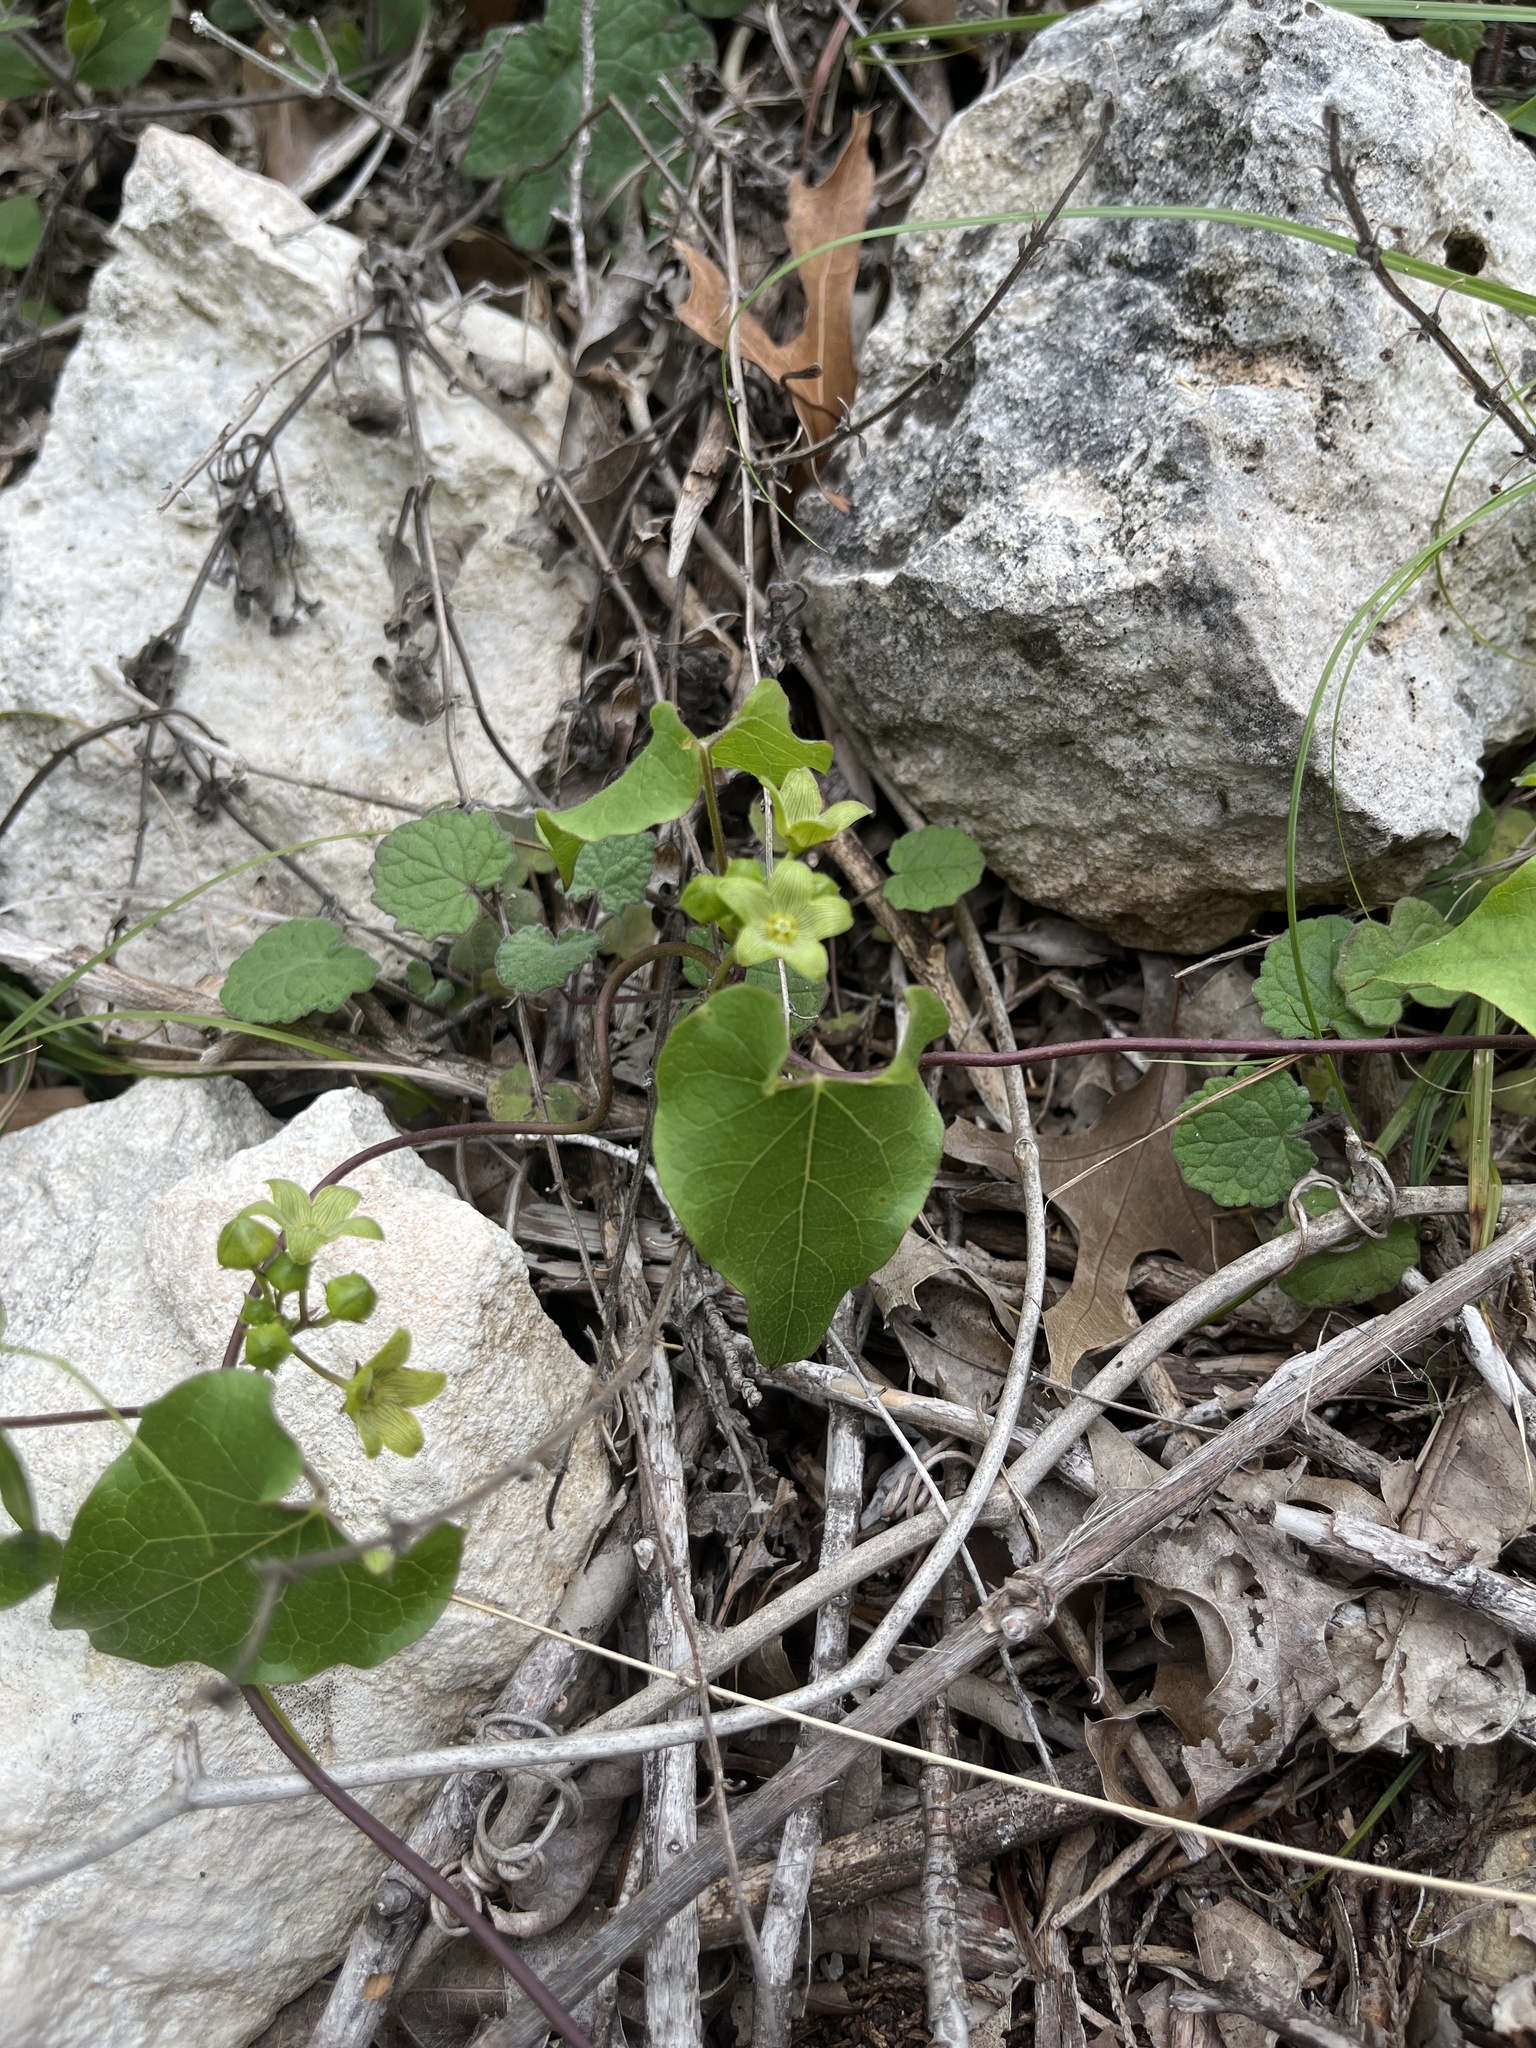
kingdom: Plantae
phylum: Tracheophyta
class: Magnoliopsida
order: Gentianales
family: Apocynaceae
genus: Matelea
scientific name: Matelea edwardsensis
